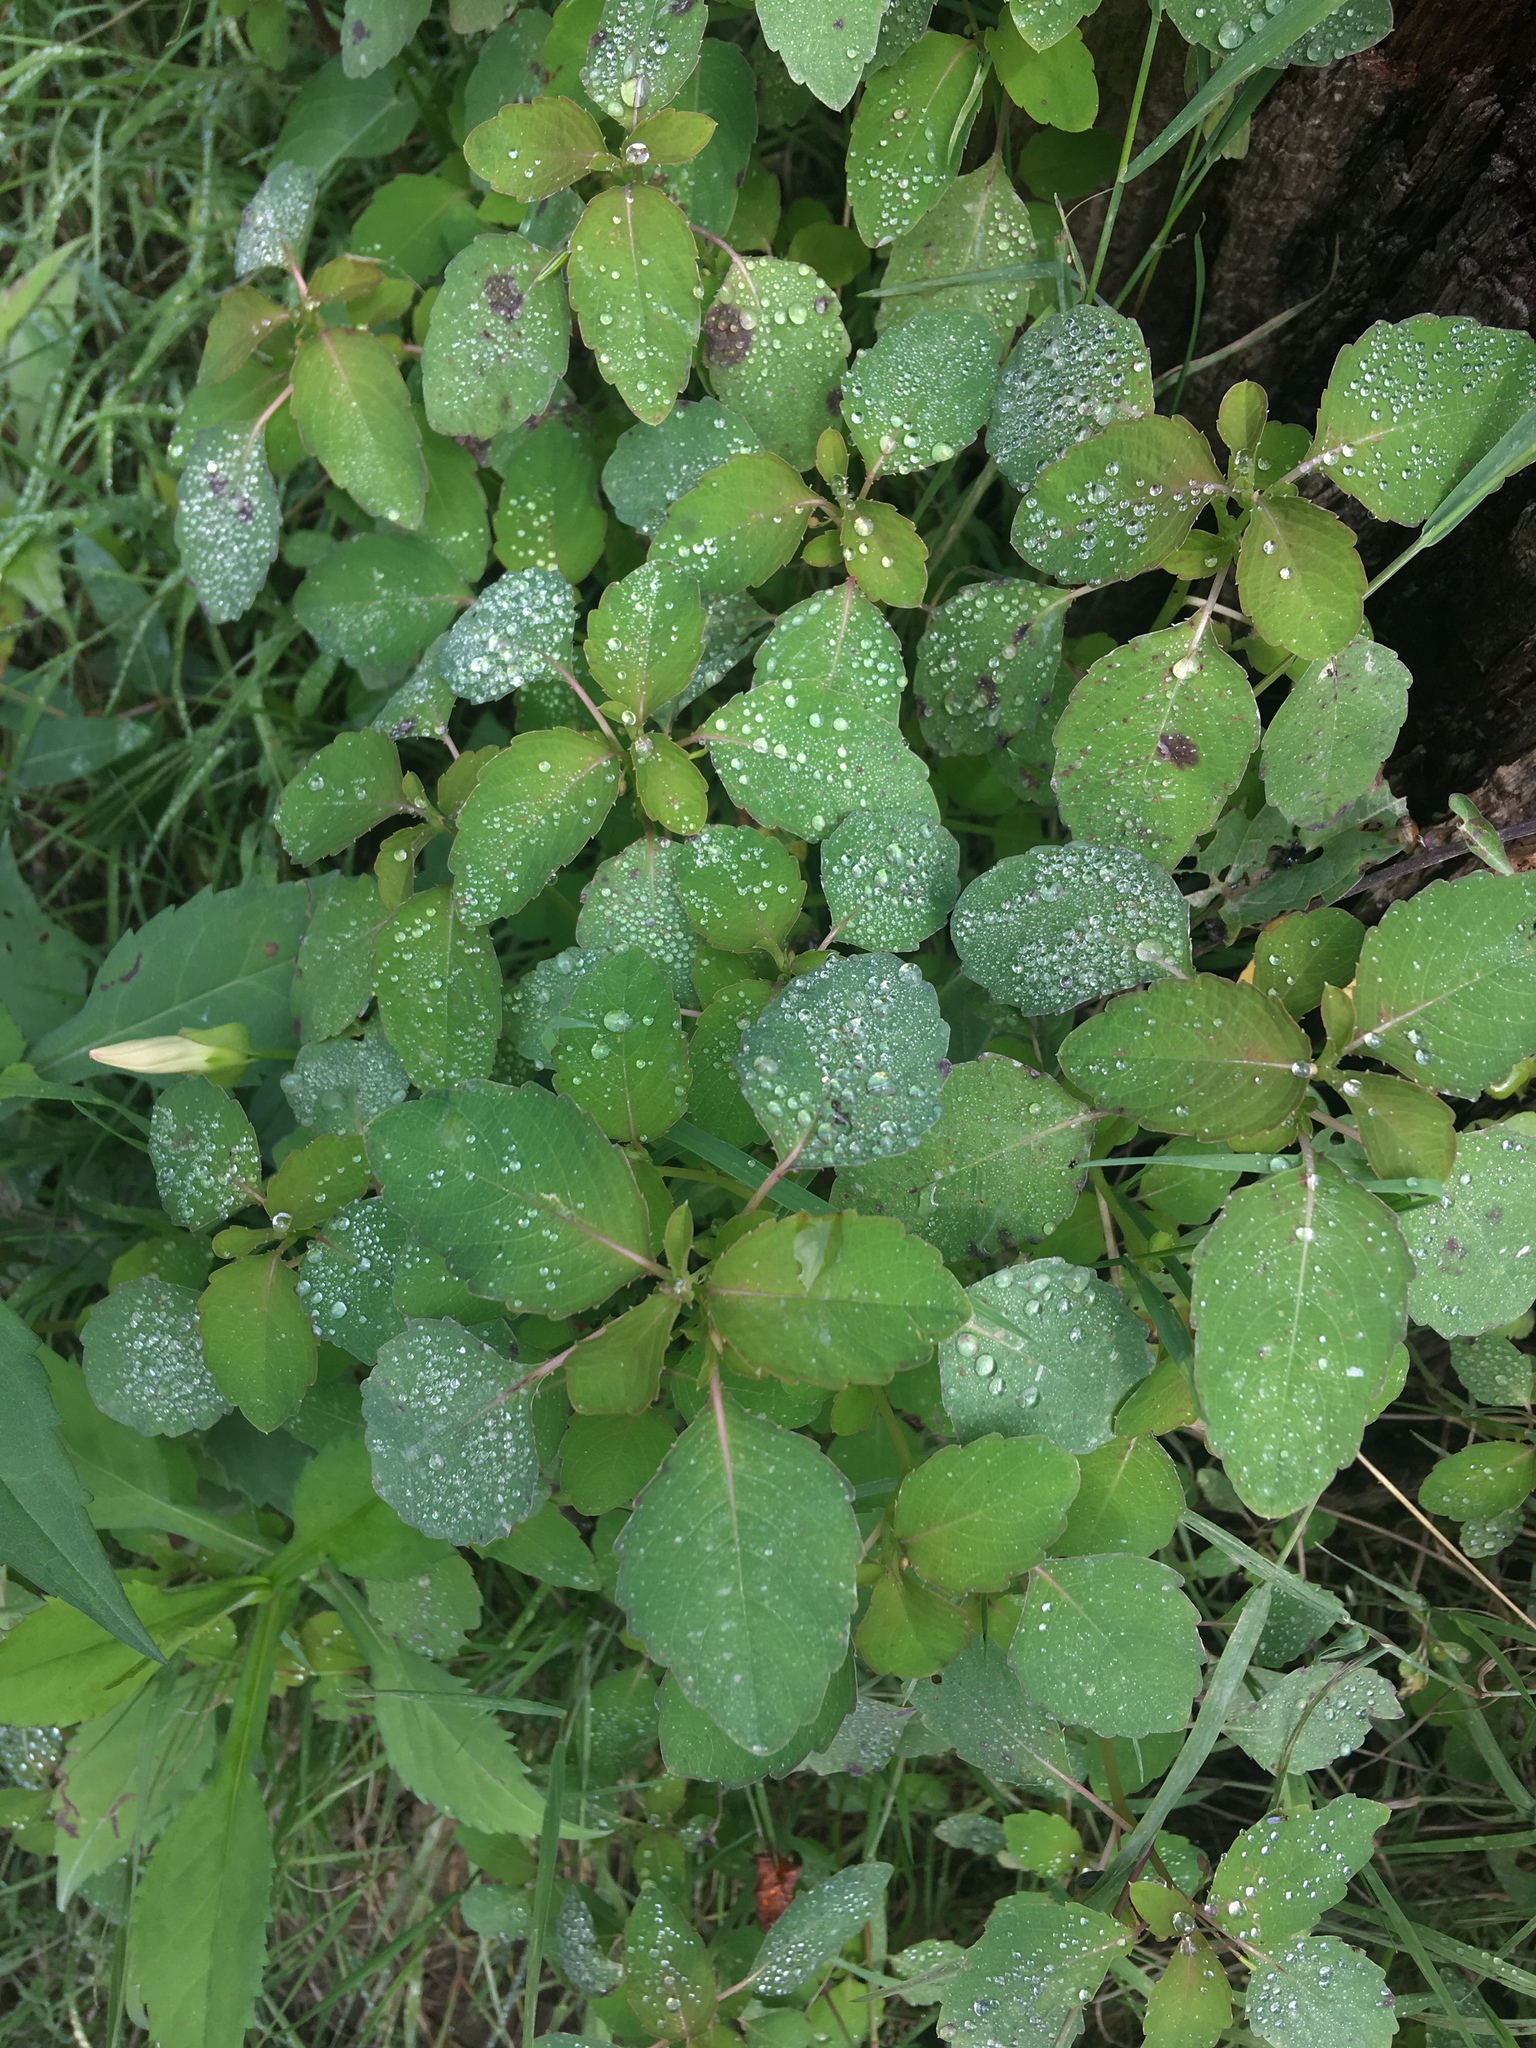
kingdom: Plantae
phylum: Tracheophyta
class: Magnoliopsida
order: Ericales
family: Balsaminaceae
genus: Impatiens
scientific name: Impatiens capensis
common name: Orange balsam
